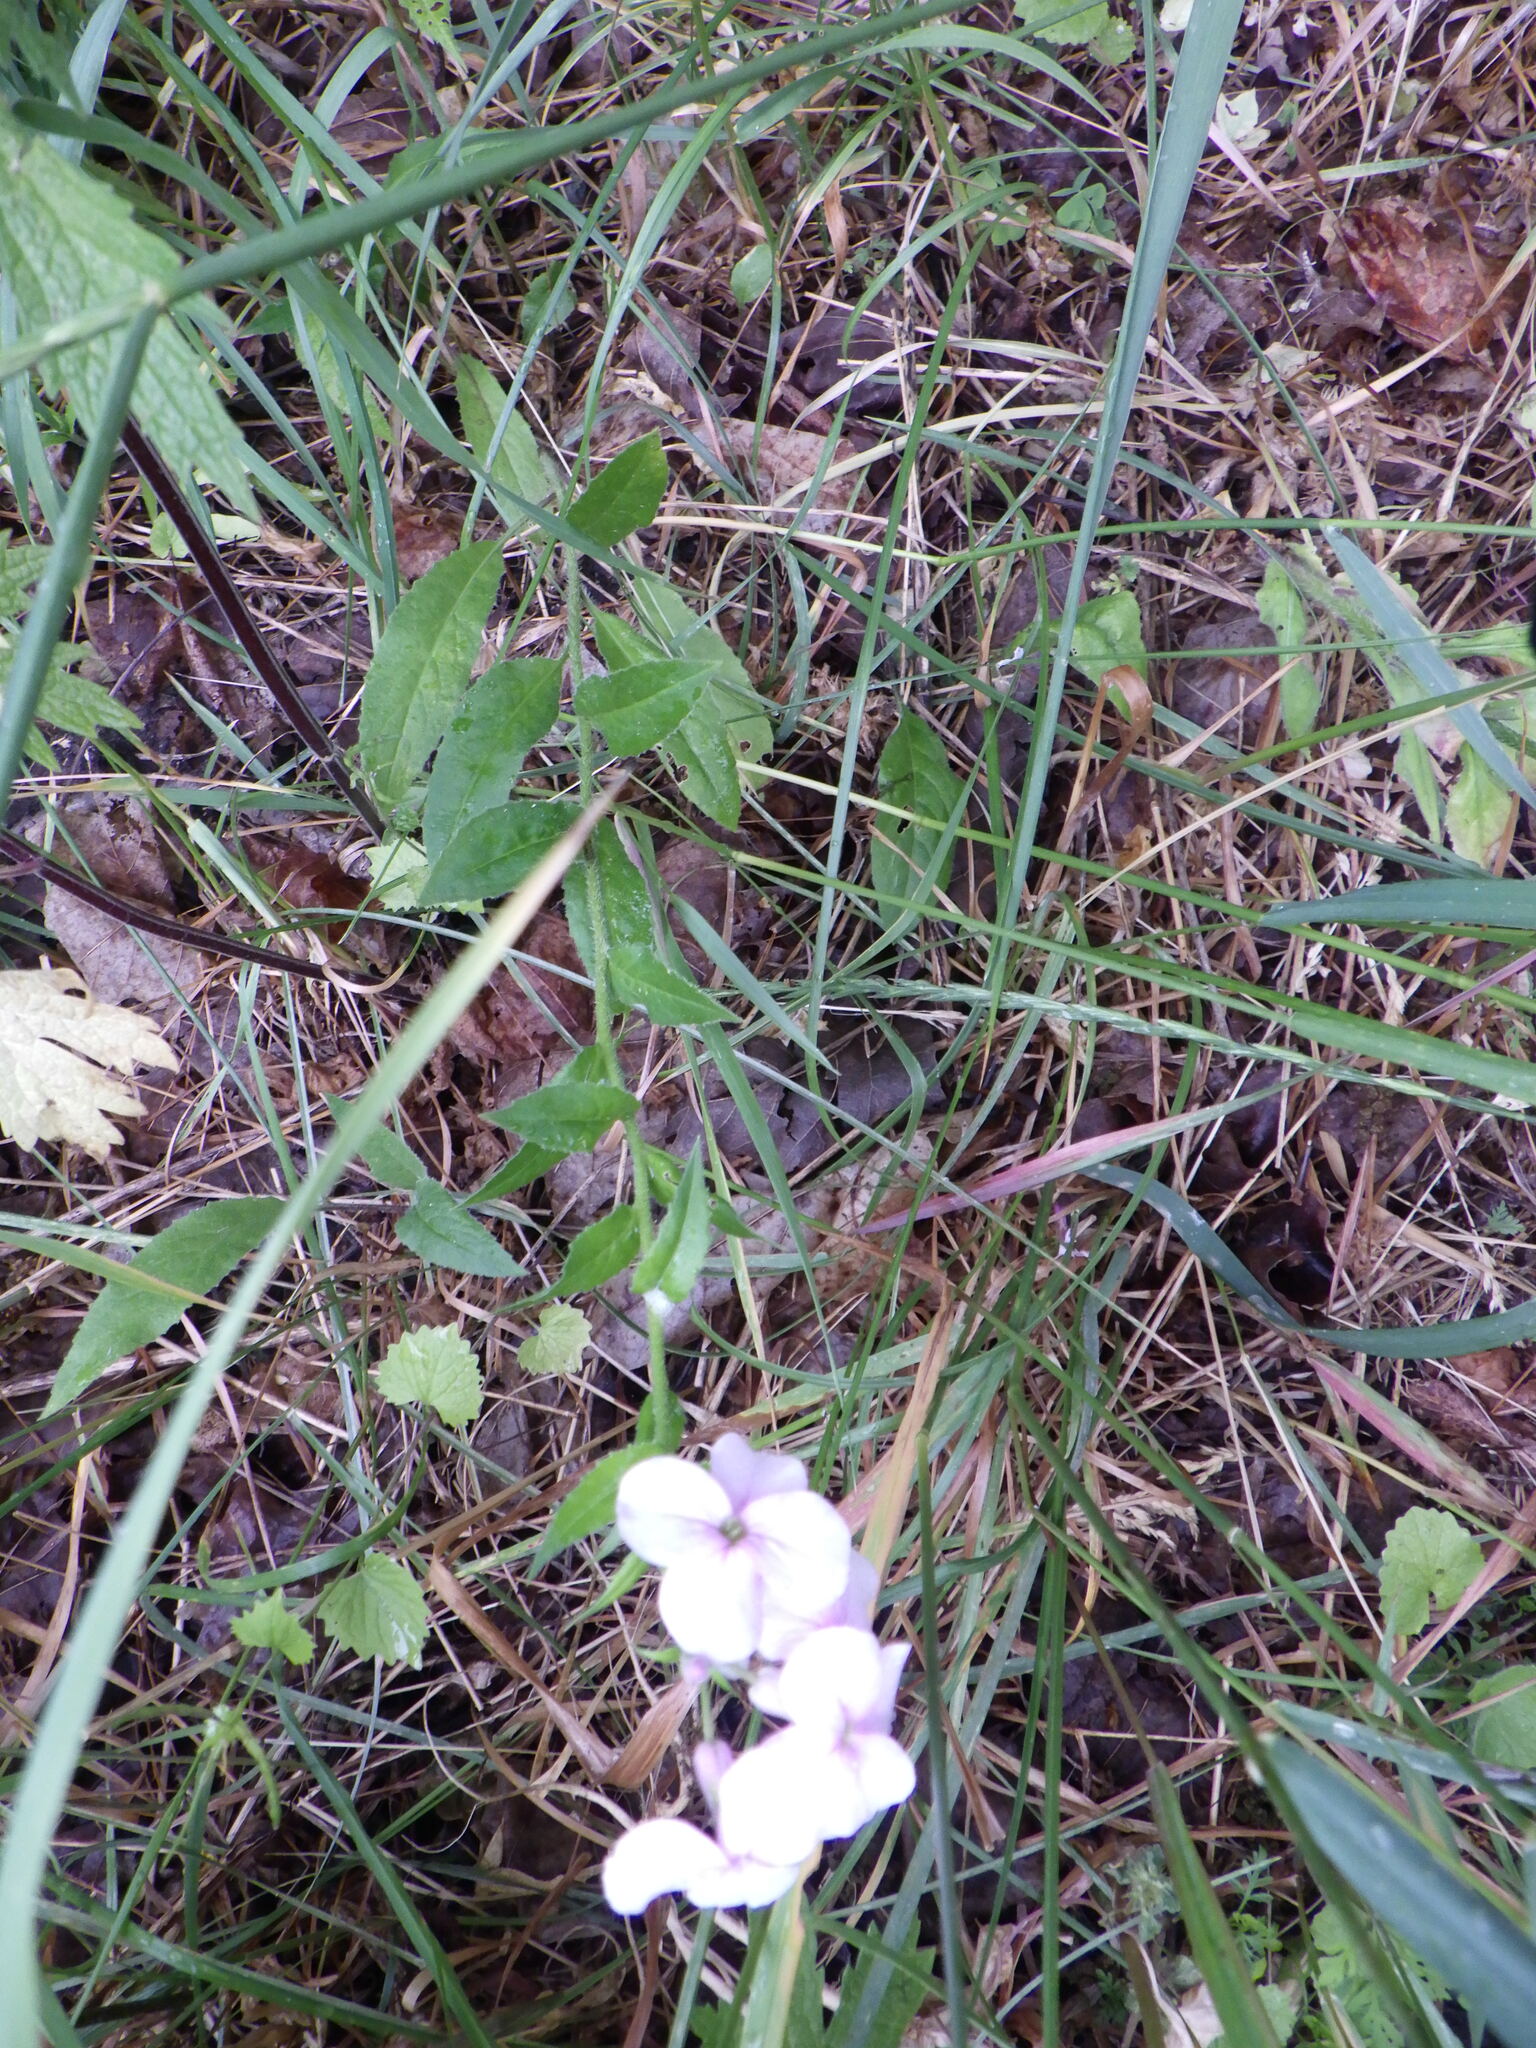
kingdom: Plantae
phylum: Tracheophyta
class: Magnoliopsida
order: Brassicales
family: Brassicaceae
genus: Hesperis
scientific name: Hesperis matronalis
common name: Dame's-violet
